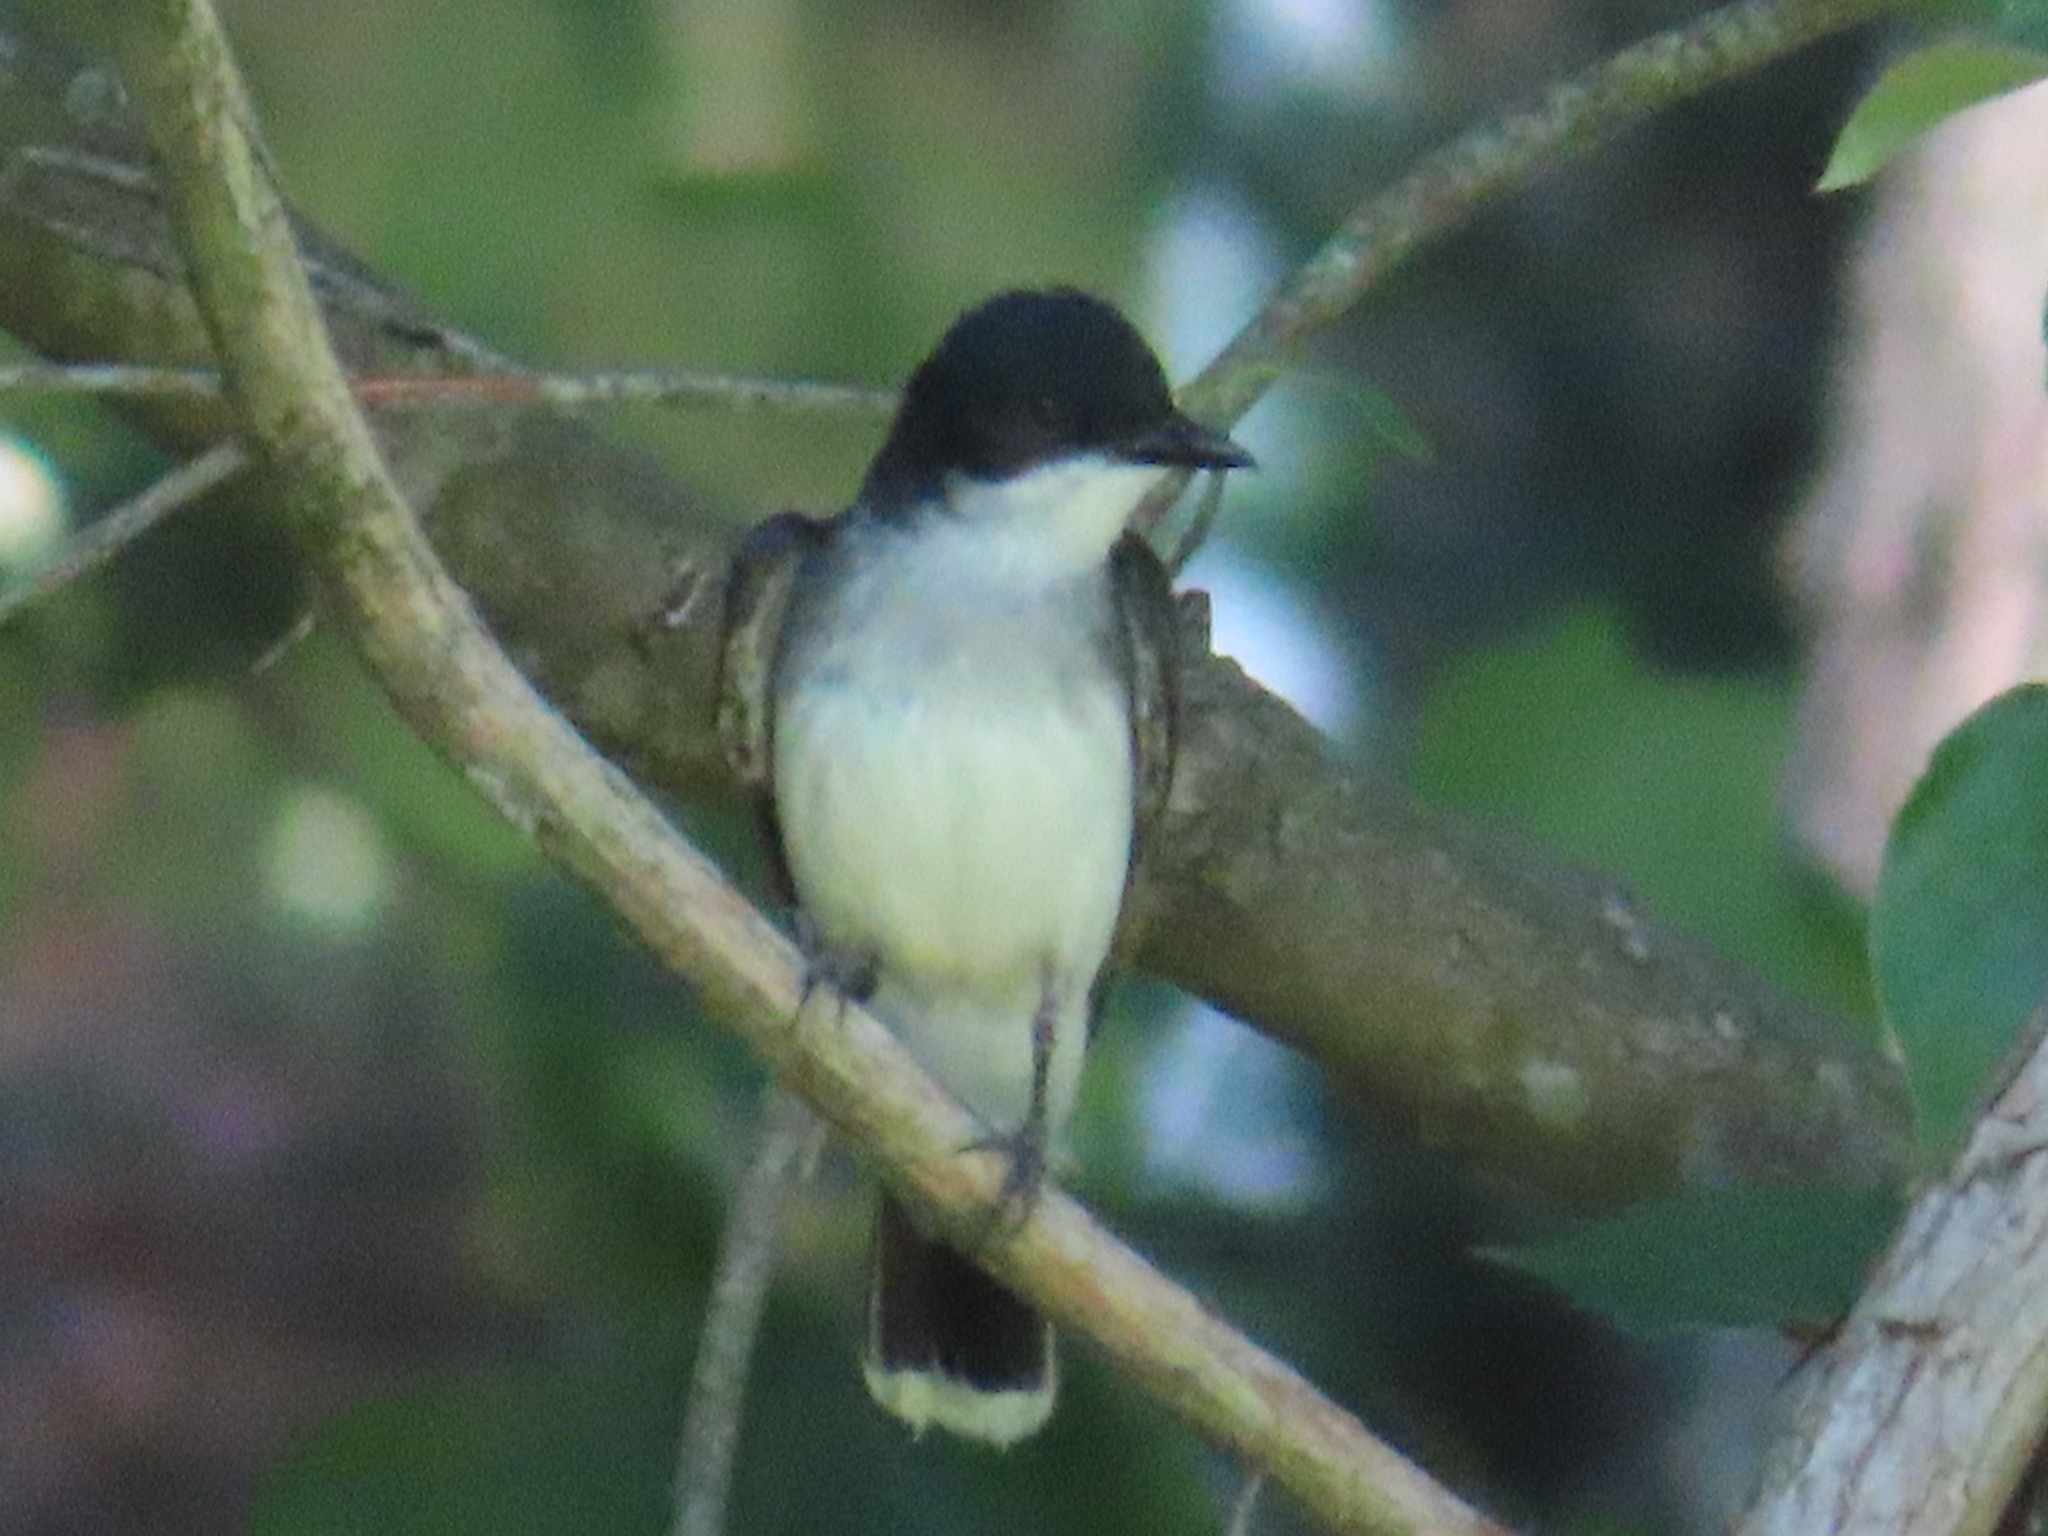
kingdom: Animalia
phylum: Chordata
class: Aves
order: Passeriformes
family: Tyrannidae
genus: Tyrannus
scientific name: Tyrannus tyrannus
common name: Eastern kingbird
